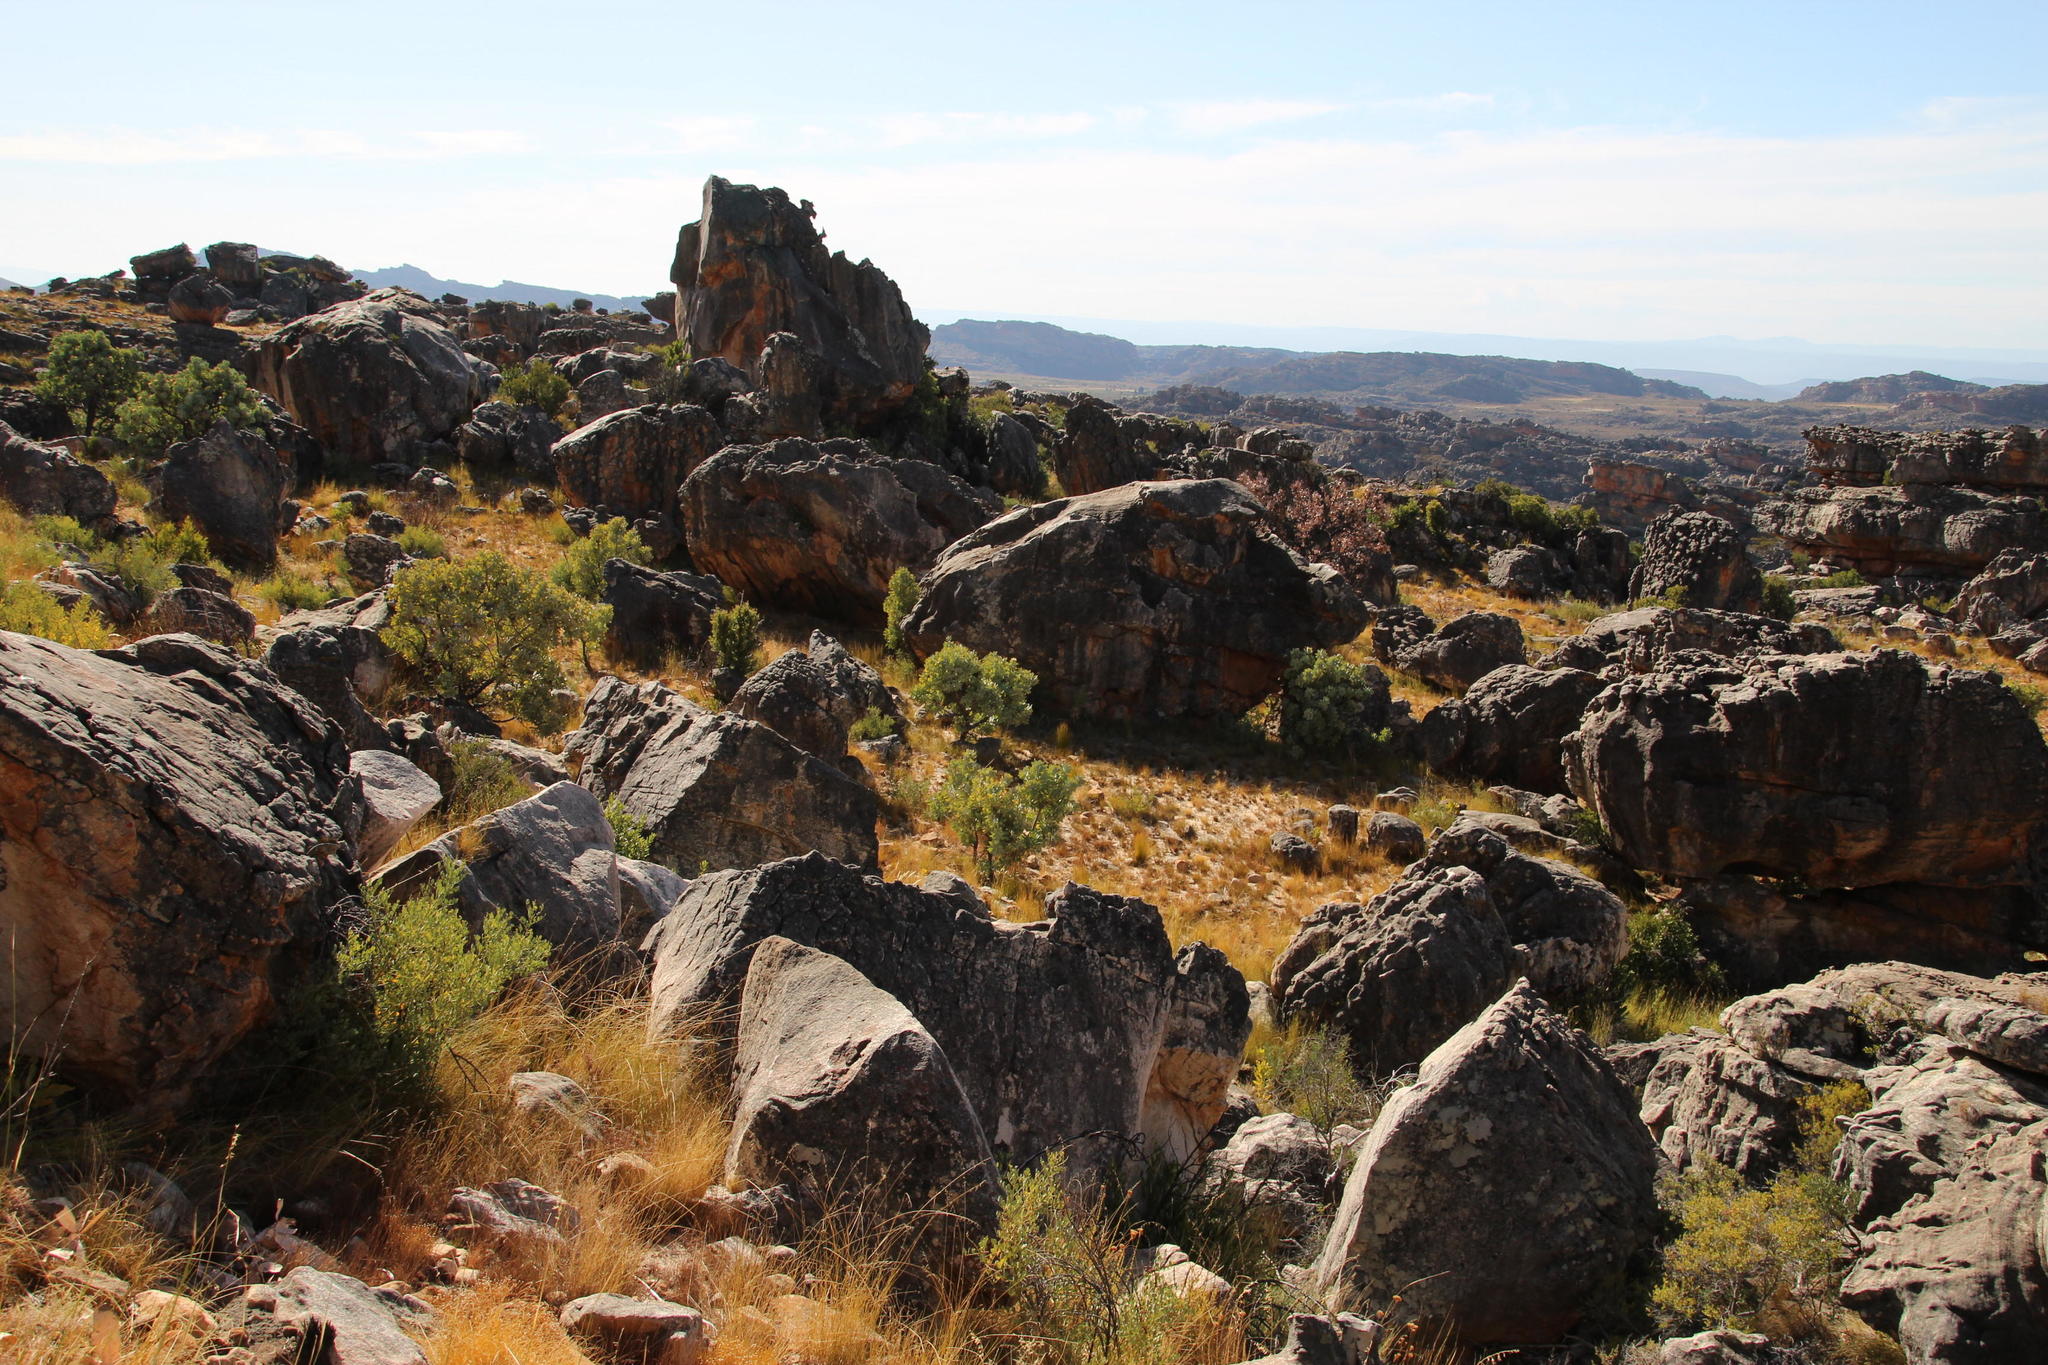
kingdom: Plantae
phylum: Tracheophyta
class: Magnoliopsida
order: Proteales
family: Proteaceae
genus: Protea
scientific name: Protea nitida
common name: Tree protea
